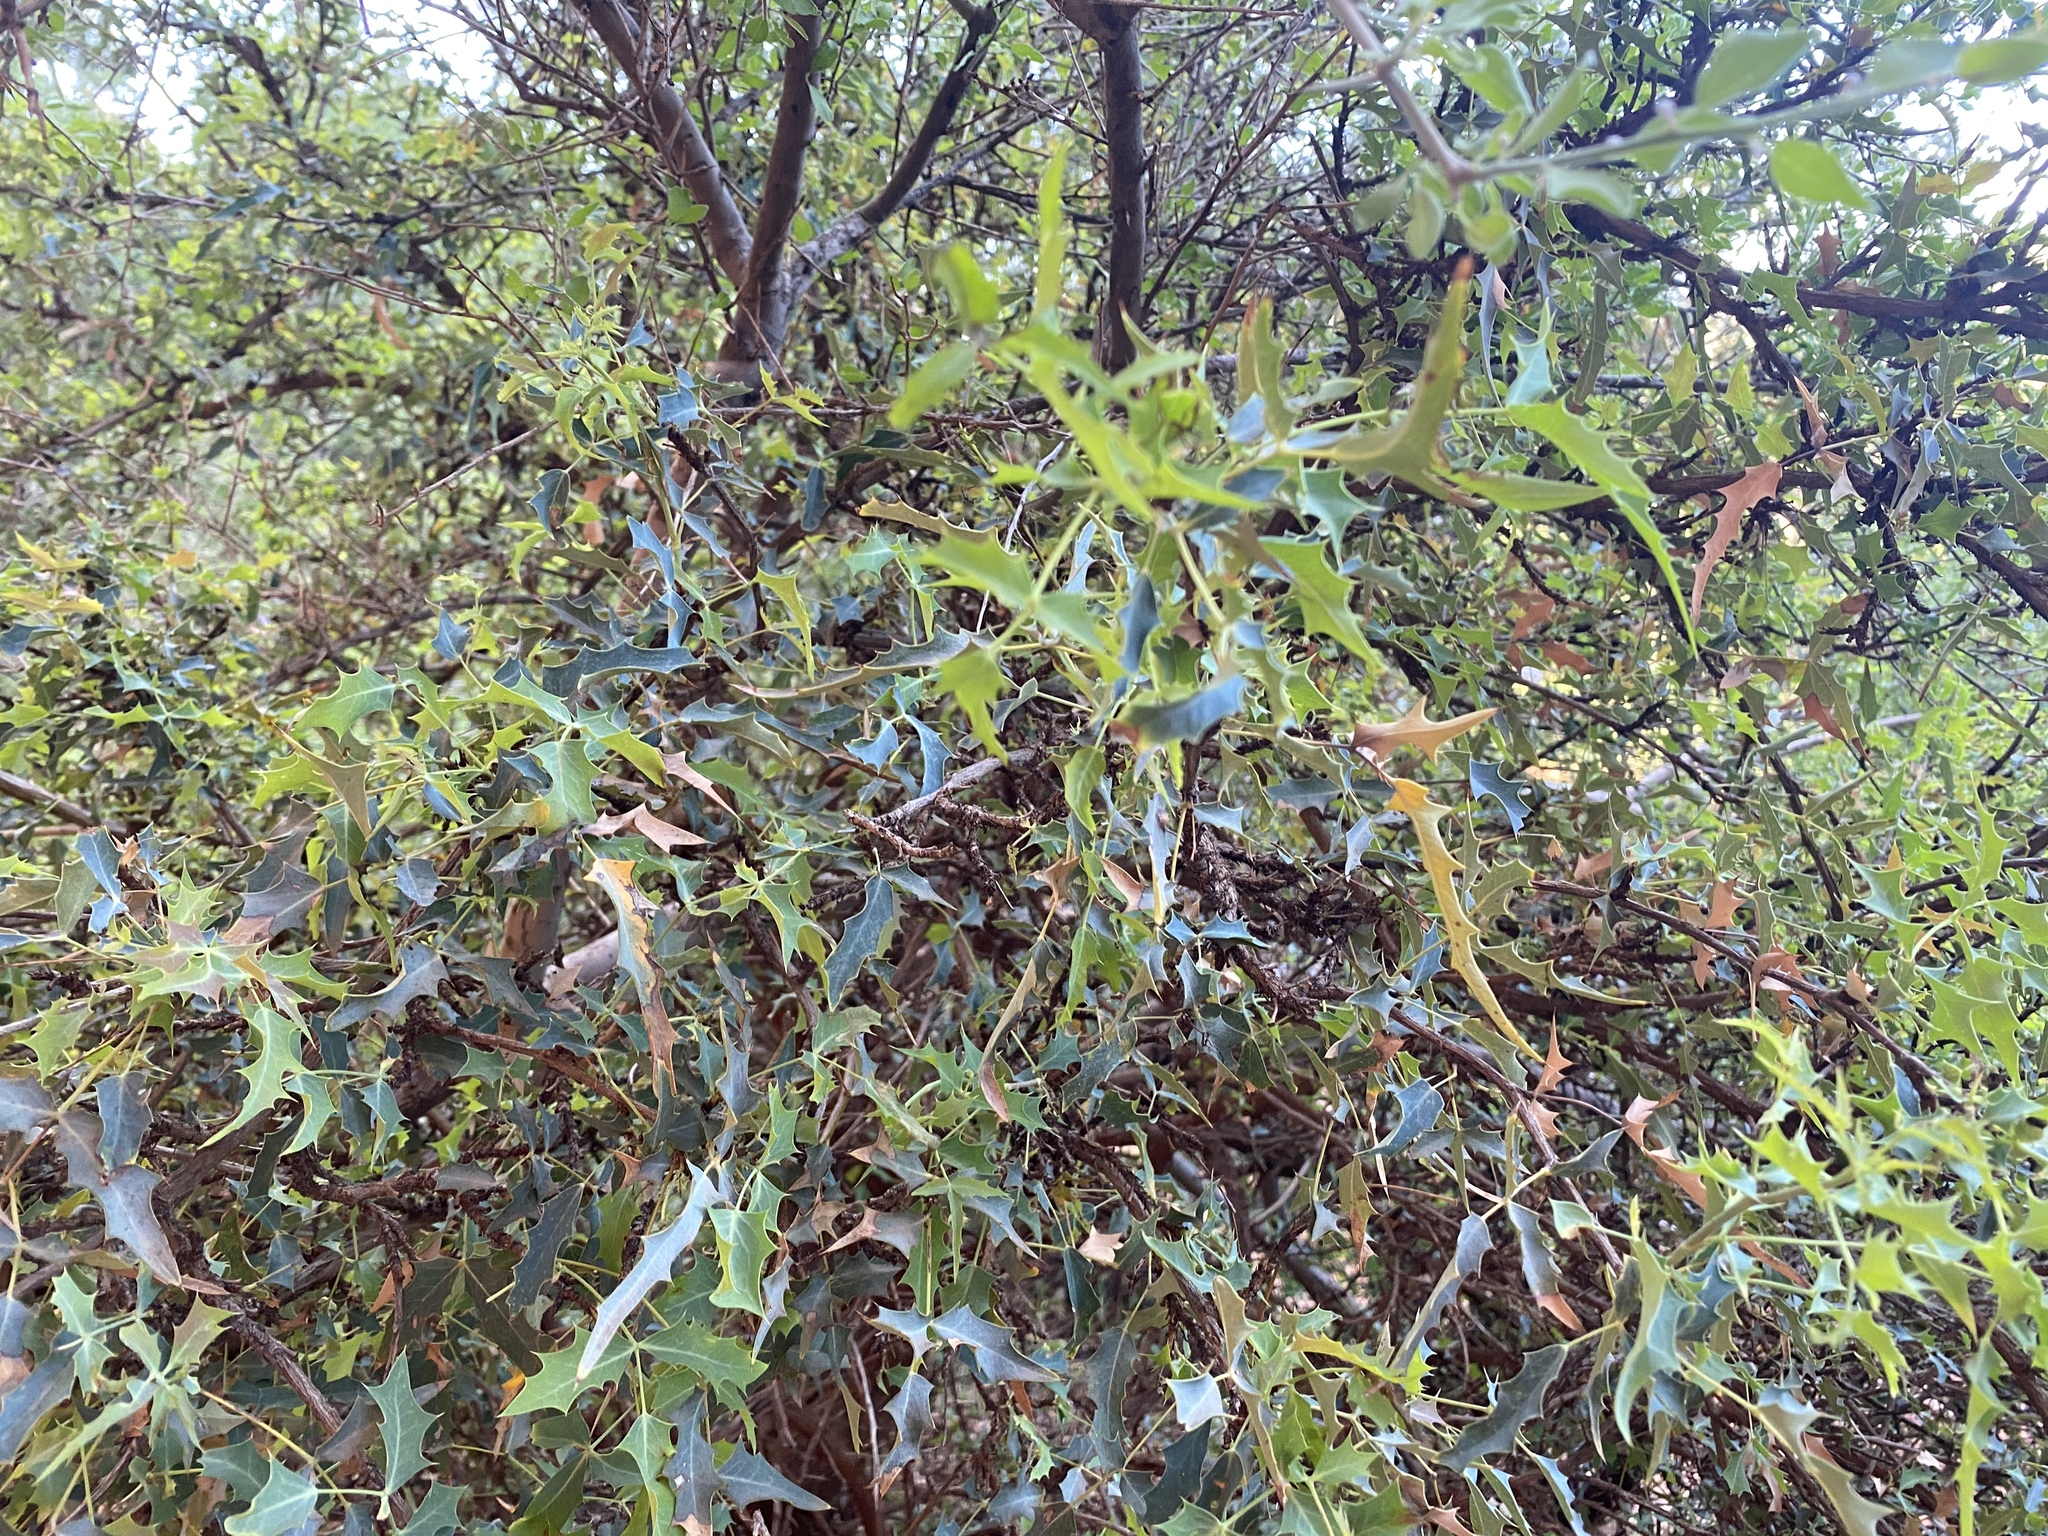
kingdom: Plantae
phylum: Tracheophyta
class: Magnoliopsida
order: Ranunculales
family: Berberidaceae
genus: Alloberberis
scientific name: Alloberberis haematocarpa
